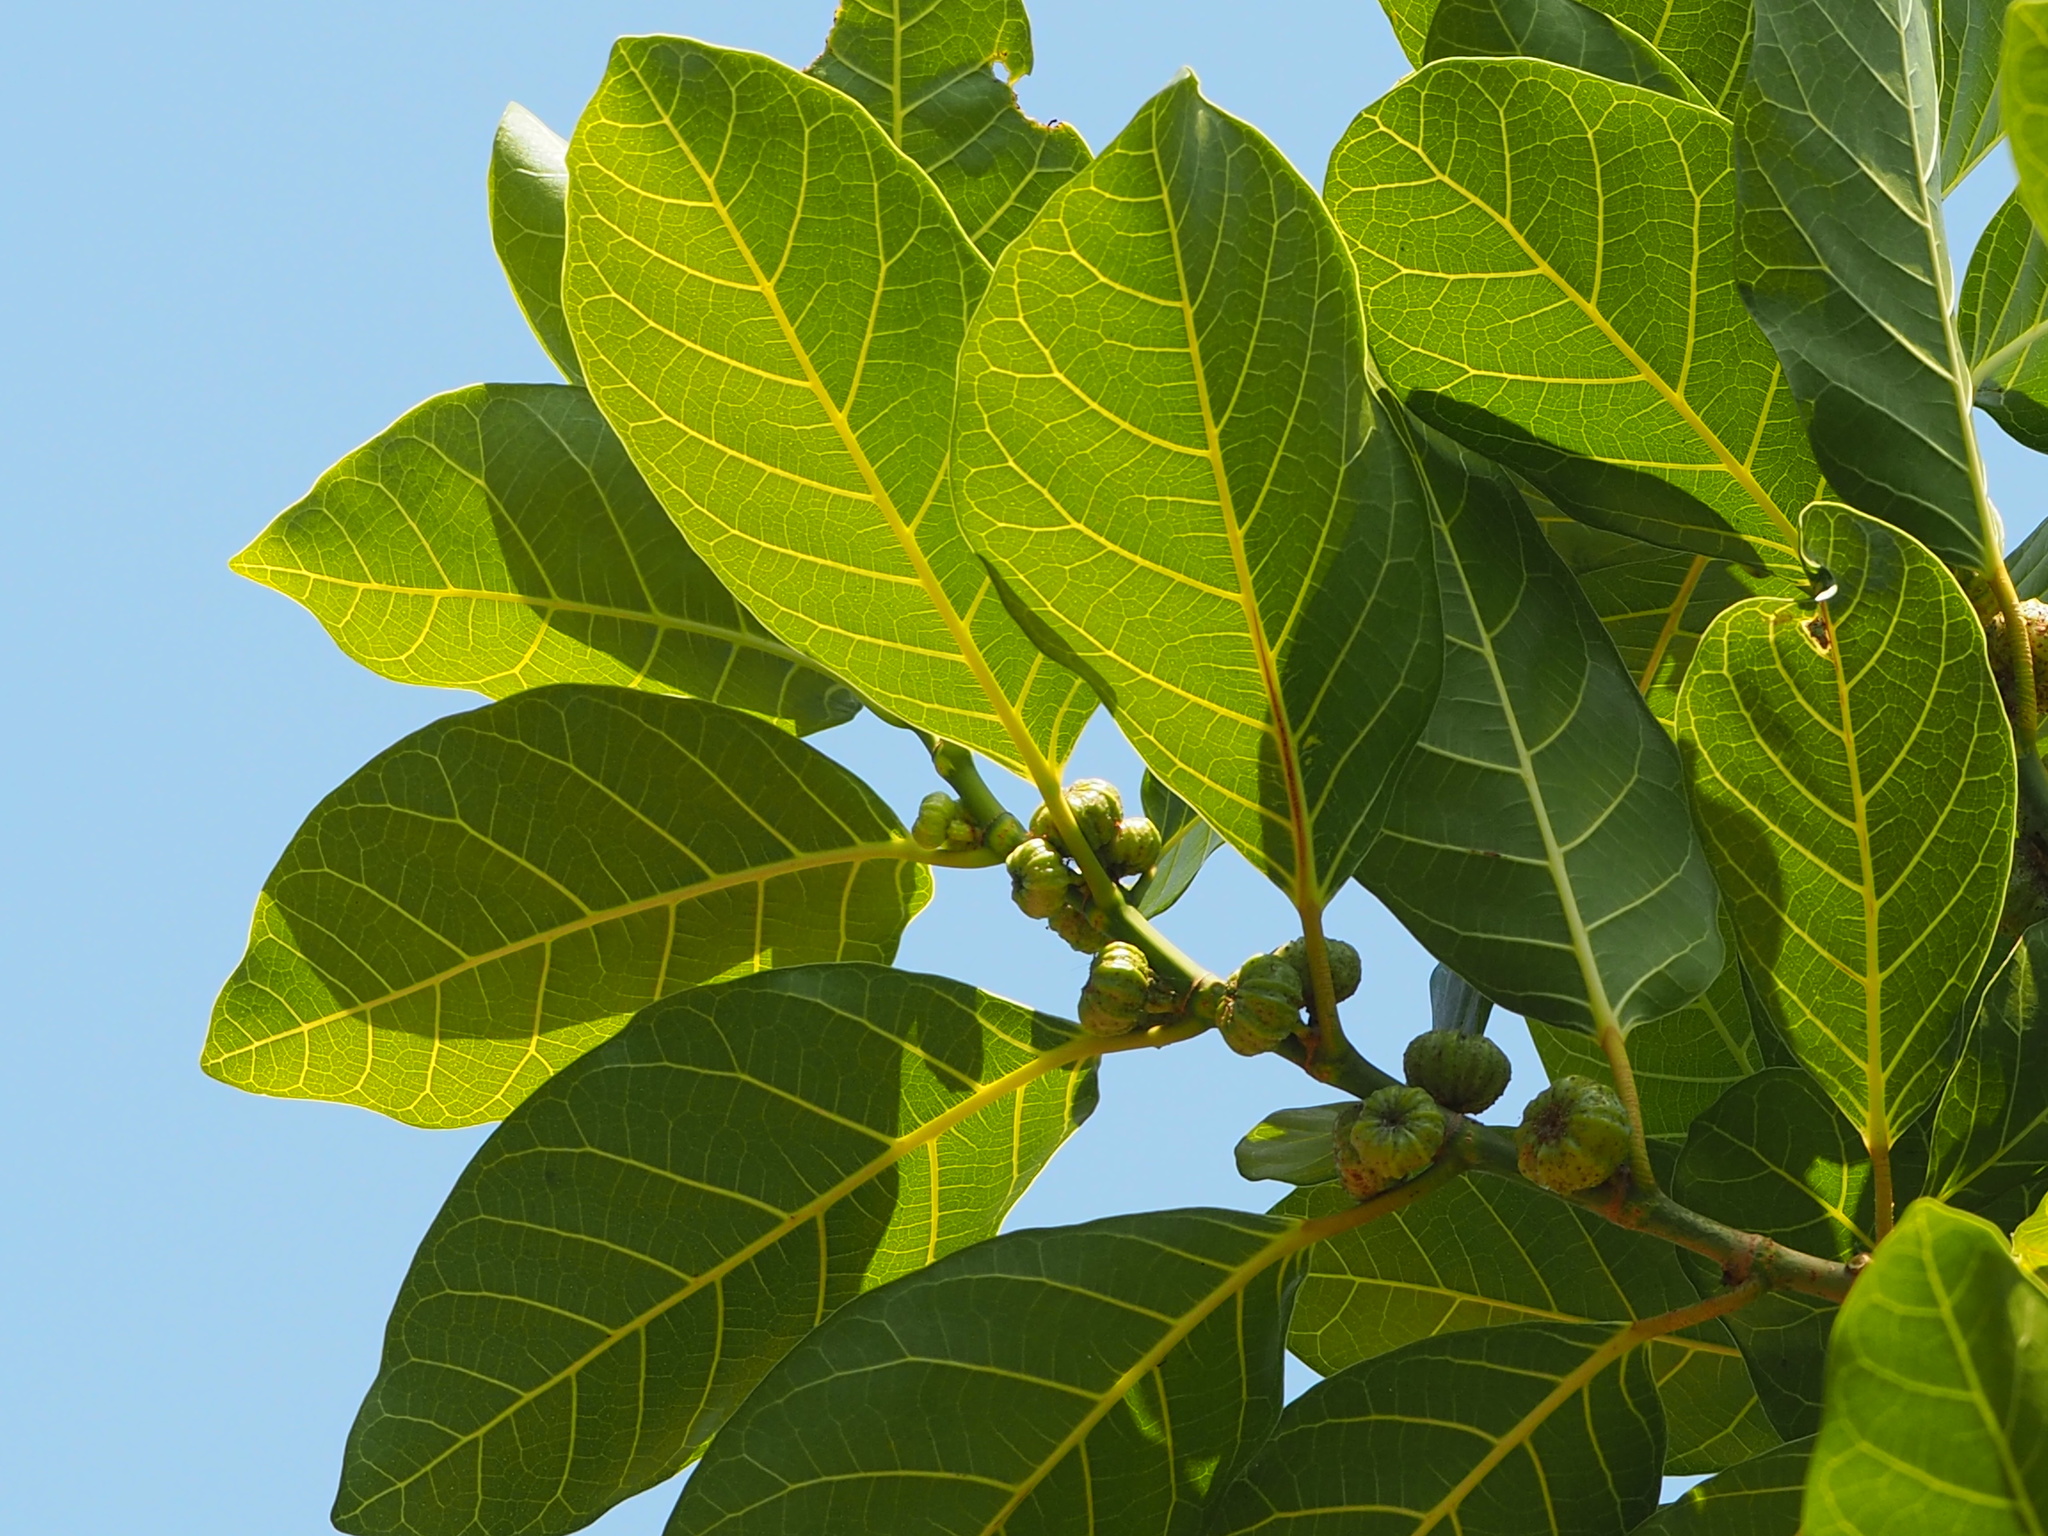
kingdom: Plantae
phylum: Tracheophyta
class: Magnoliopsida
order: Rosales
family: Moraceae
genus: Ficus
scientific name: Ficus septica
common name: Septic fig
